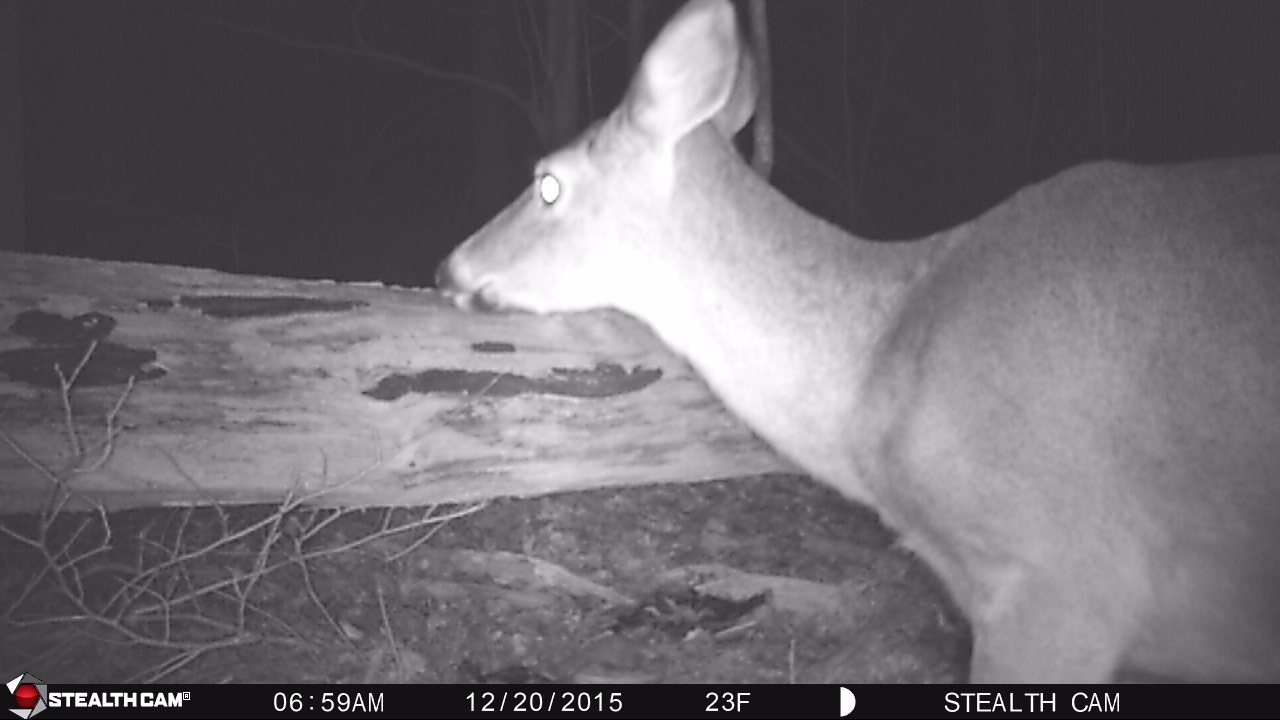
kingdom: Animalia
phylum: Chordata
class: Mammalia
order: Artiodactyla
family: Cervidae
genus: Odocoileus
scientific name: Odocoileus virginianus
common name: White-tailed deer
